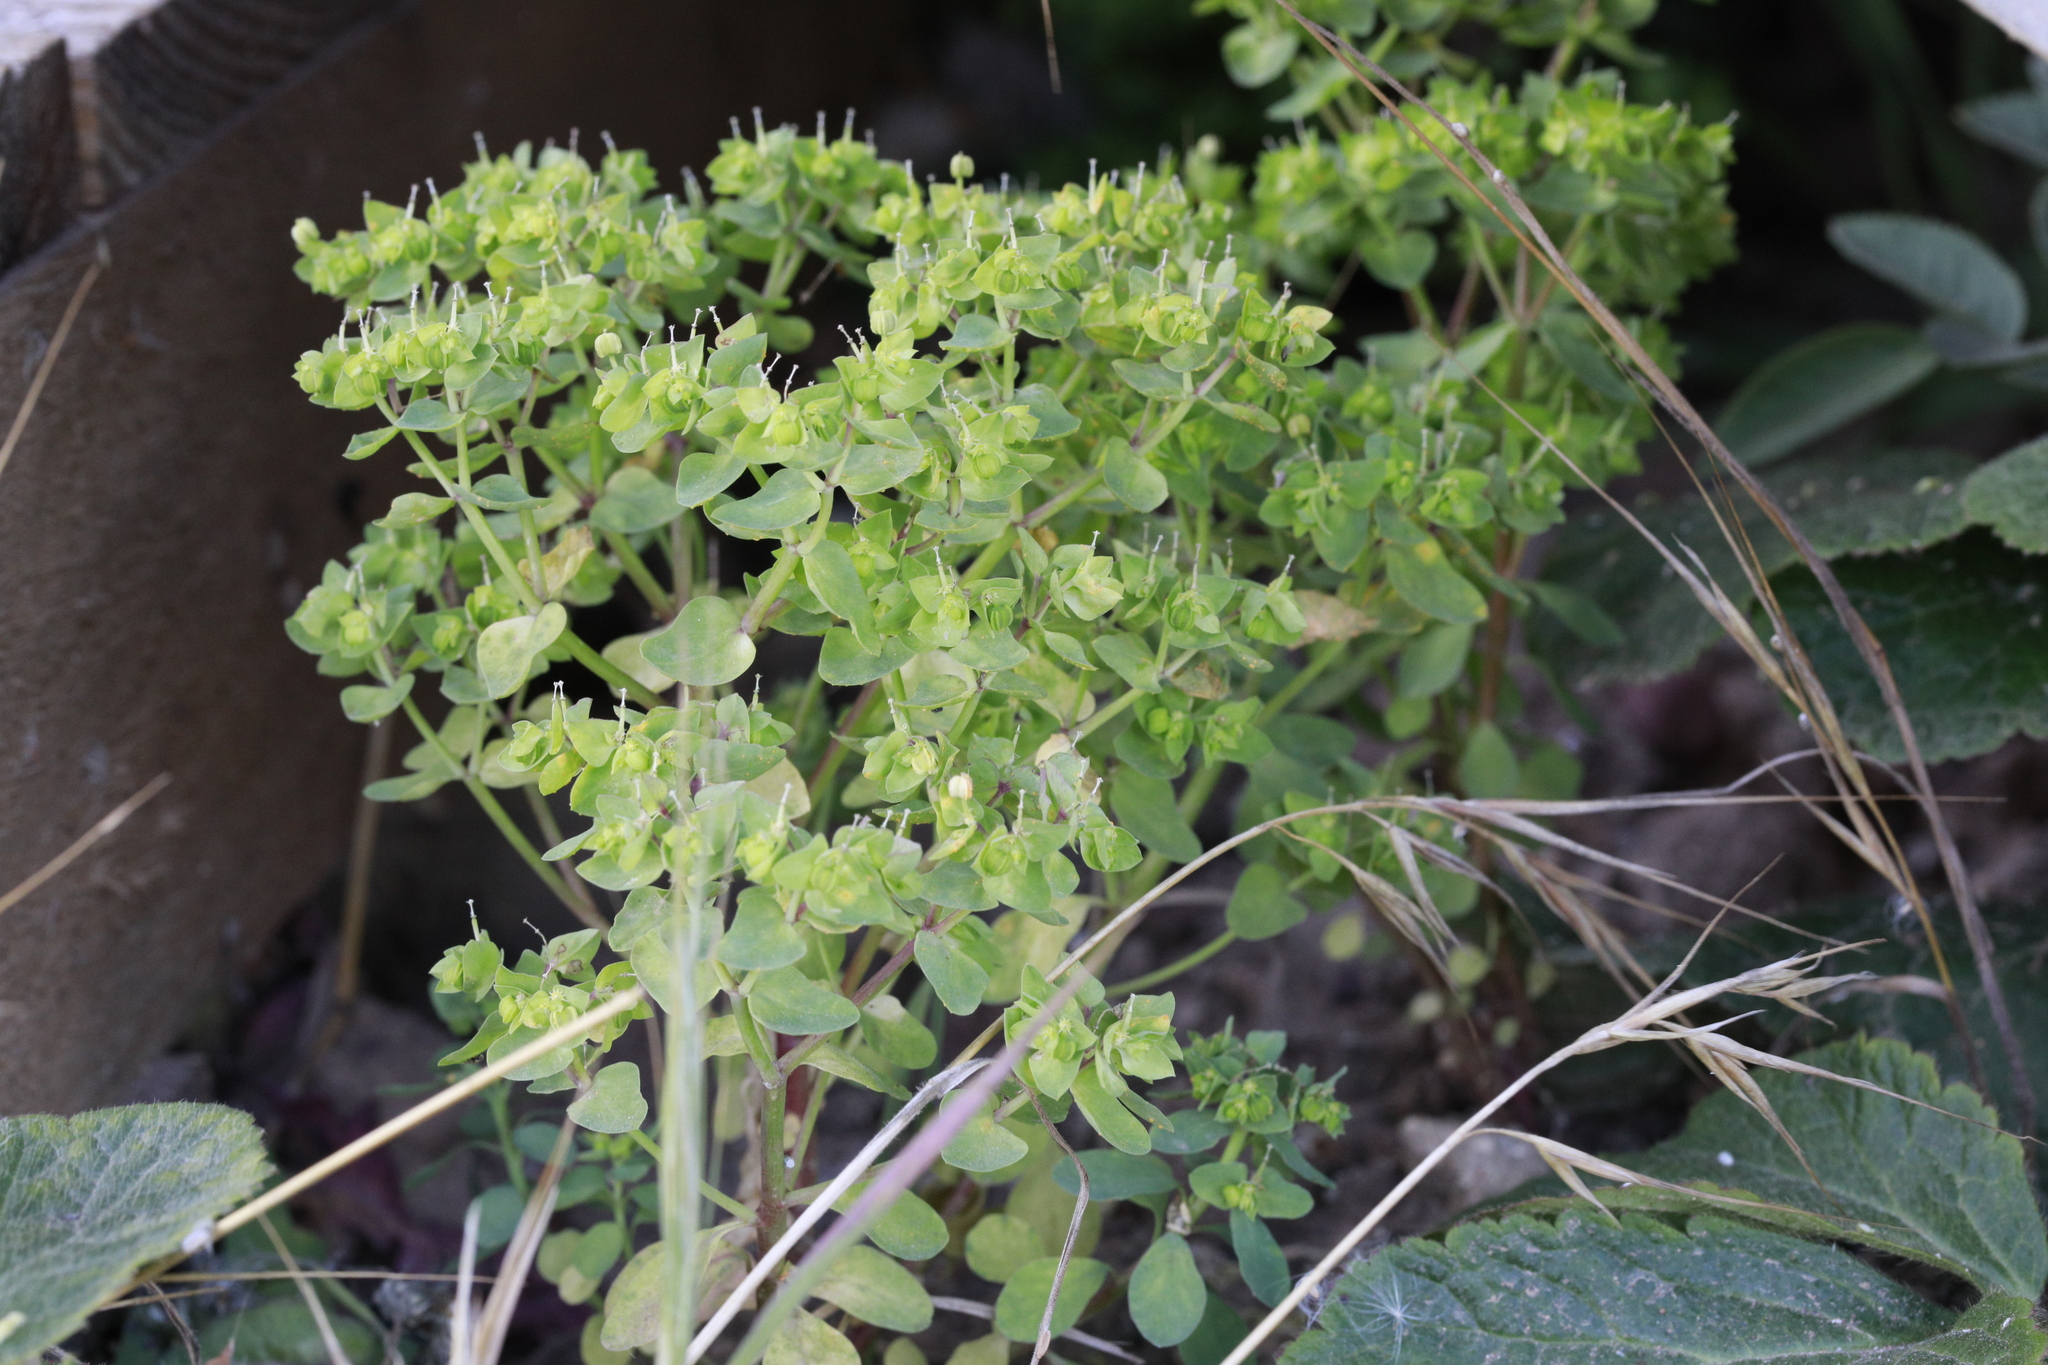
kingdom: Plantae
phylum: Tracheophyta
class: Magnoliopsida
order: Malpighiales
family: Euphorbiaceae
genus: Euphorbia
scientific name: Euphorbia peplus
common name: Petty spurge
